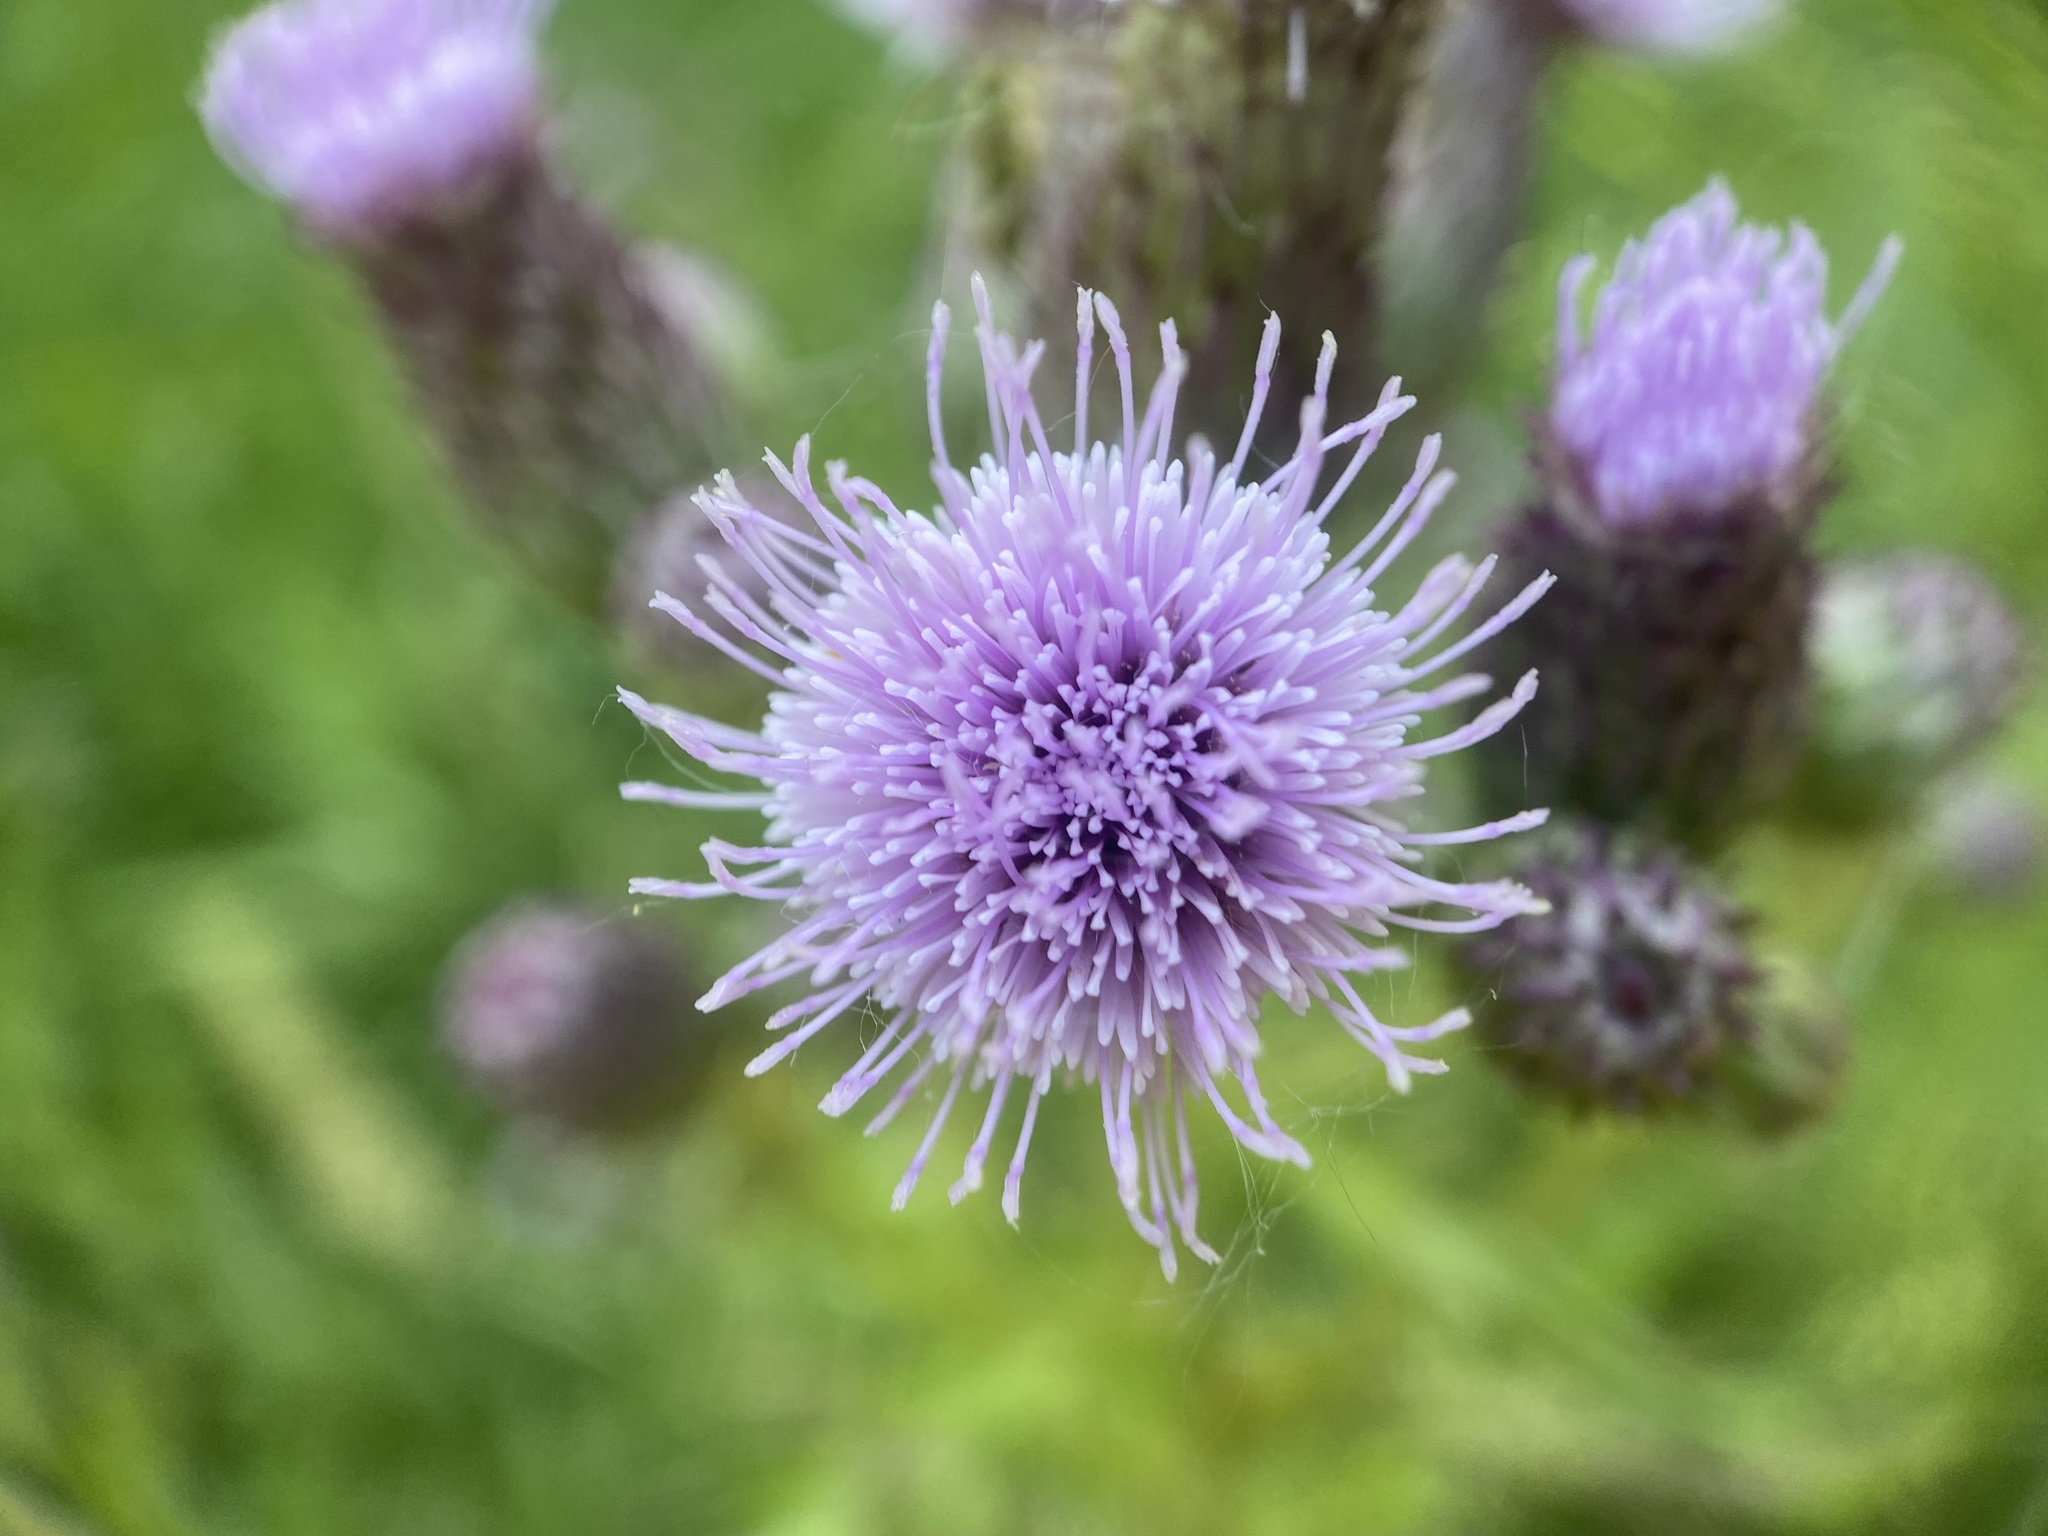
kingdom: Plantae
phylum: Tracheophyta
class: Magnoliopsida
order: Asterales
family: Asteraceae
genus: Cirsium
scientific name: Cirsium arvense
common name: Creeping thistle
